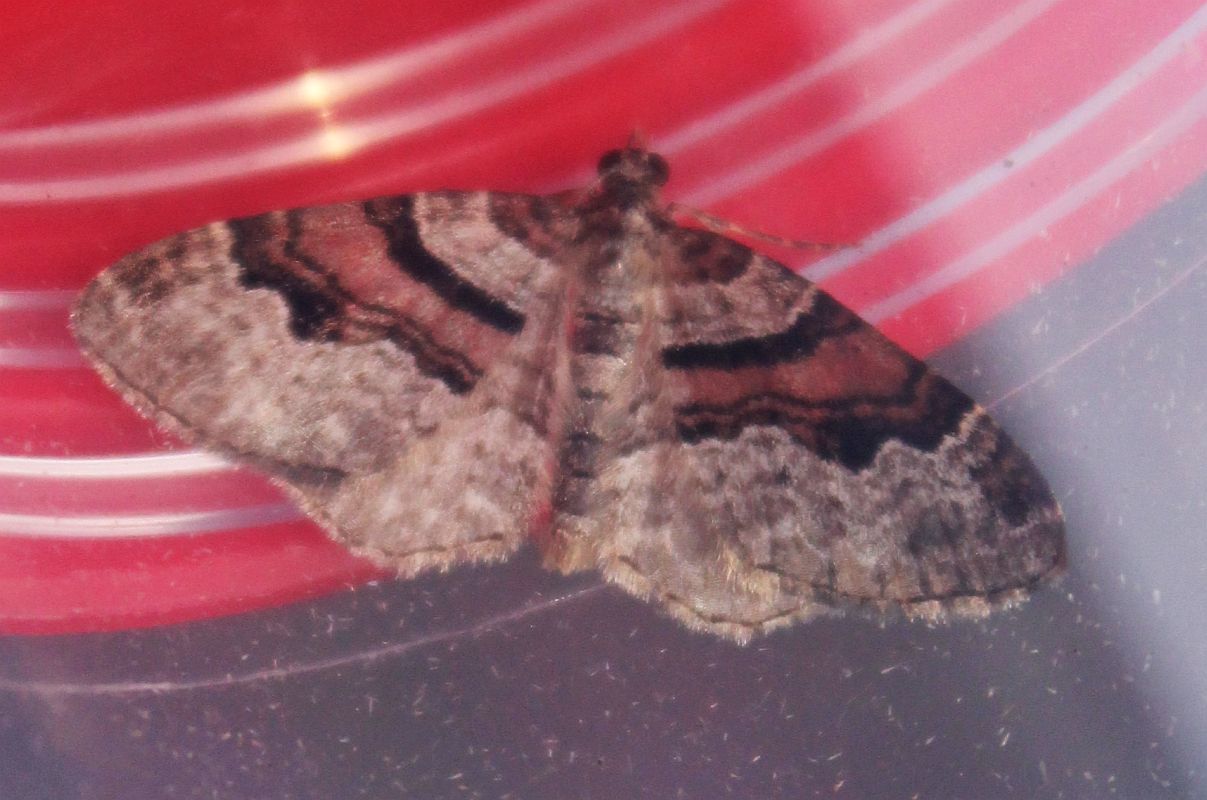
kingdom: Animalia
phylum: Arthropoda
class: Insecta
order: Lepidoptera
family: Geometridae
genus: Xanthorhoe
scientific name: Xanthorhoe designata
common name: Flame carpet
